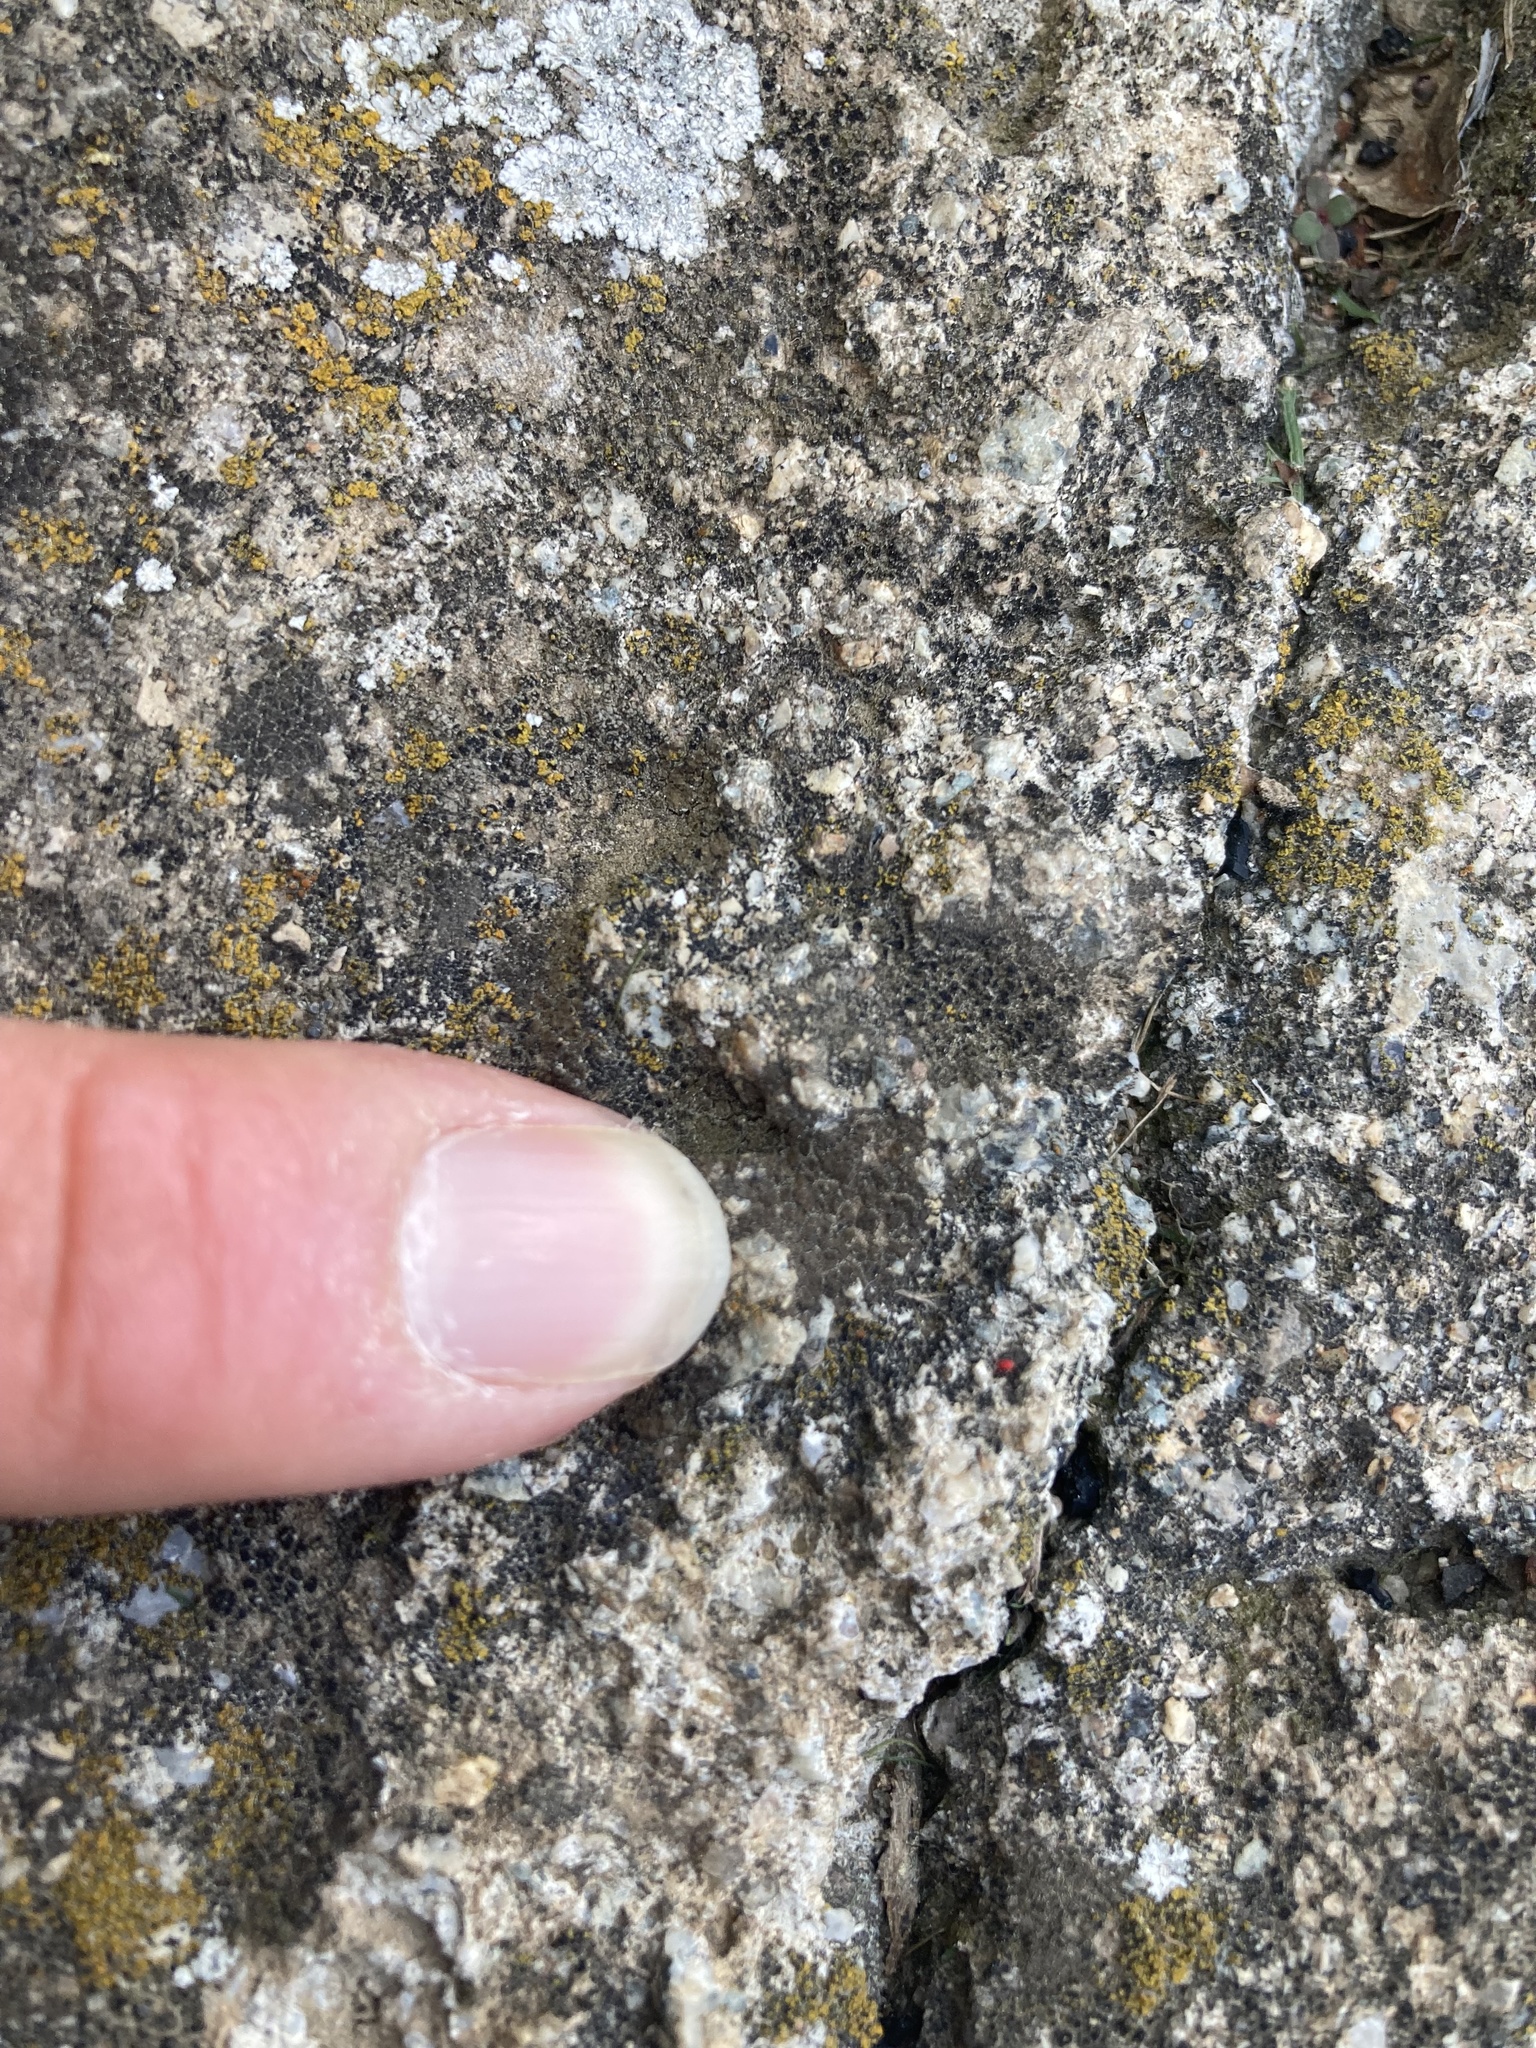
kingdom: Fungi
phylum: Ascomycota
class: Eurotiomycetes
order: Verrucariales
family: Verrucariaceae
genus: Verrucaria
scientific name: Verrucaria macrostoma
